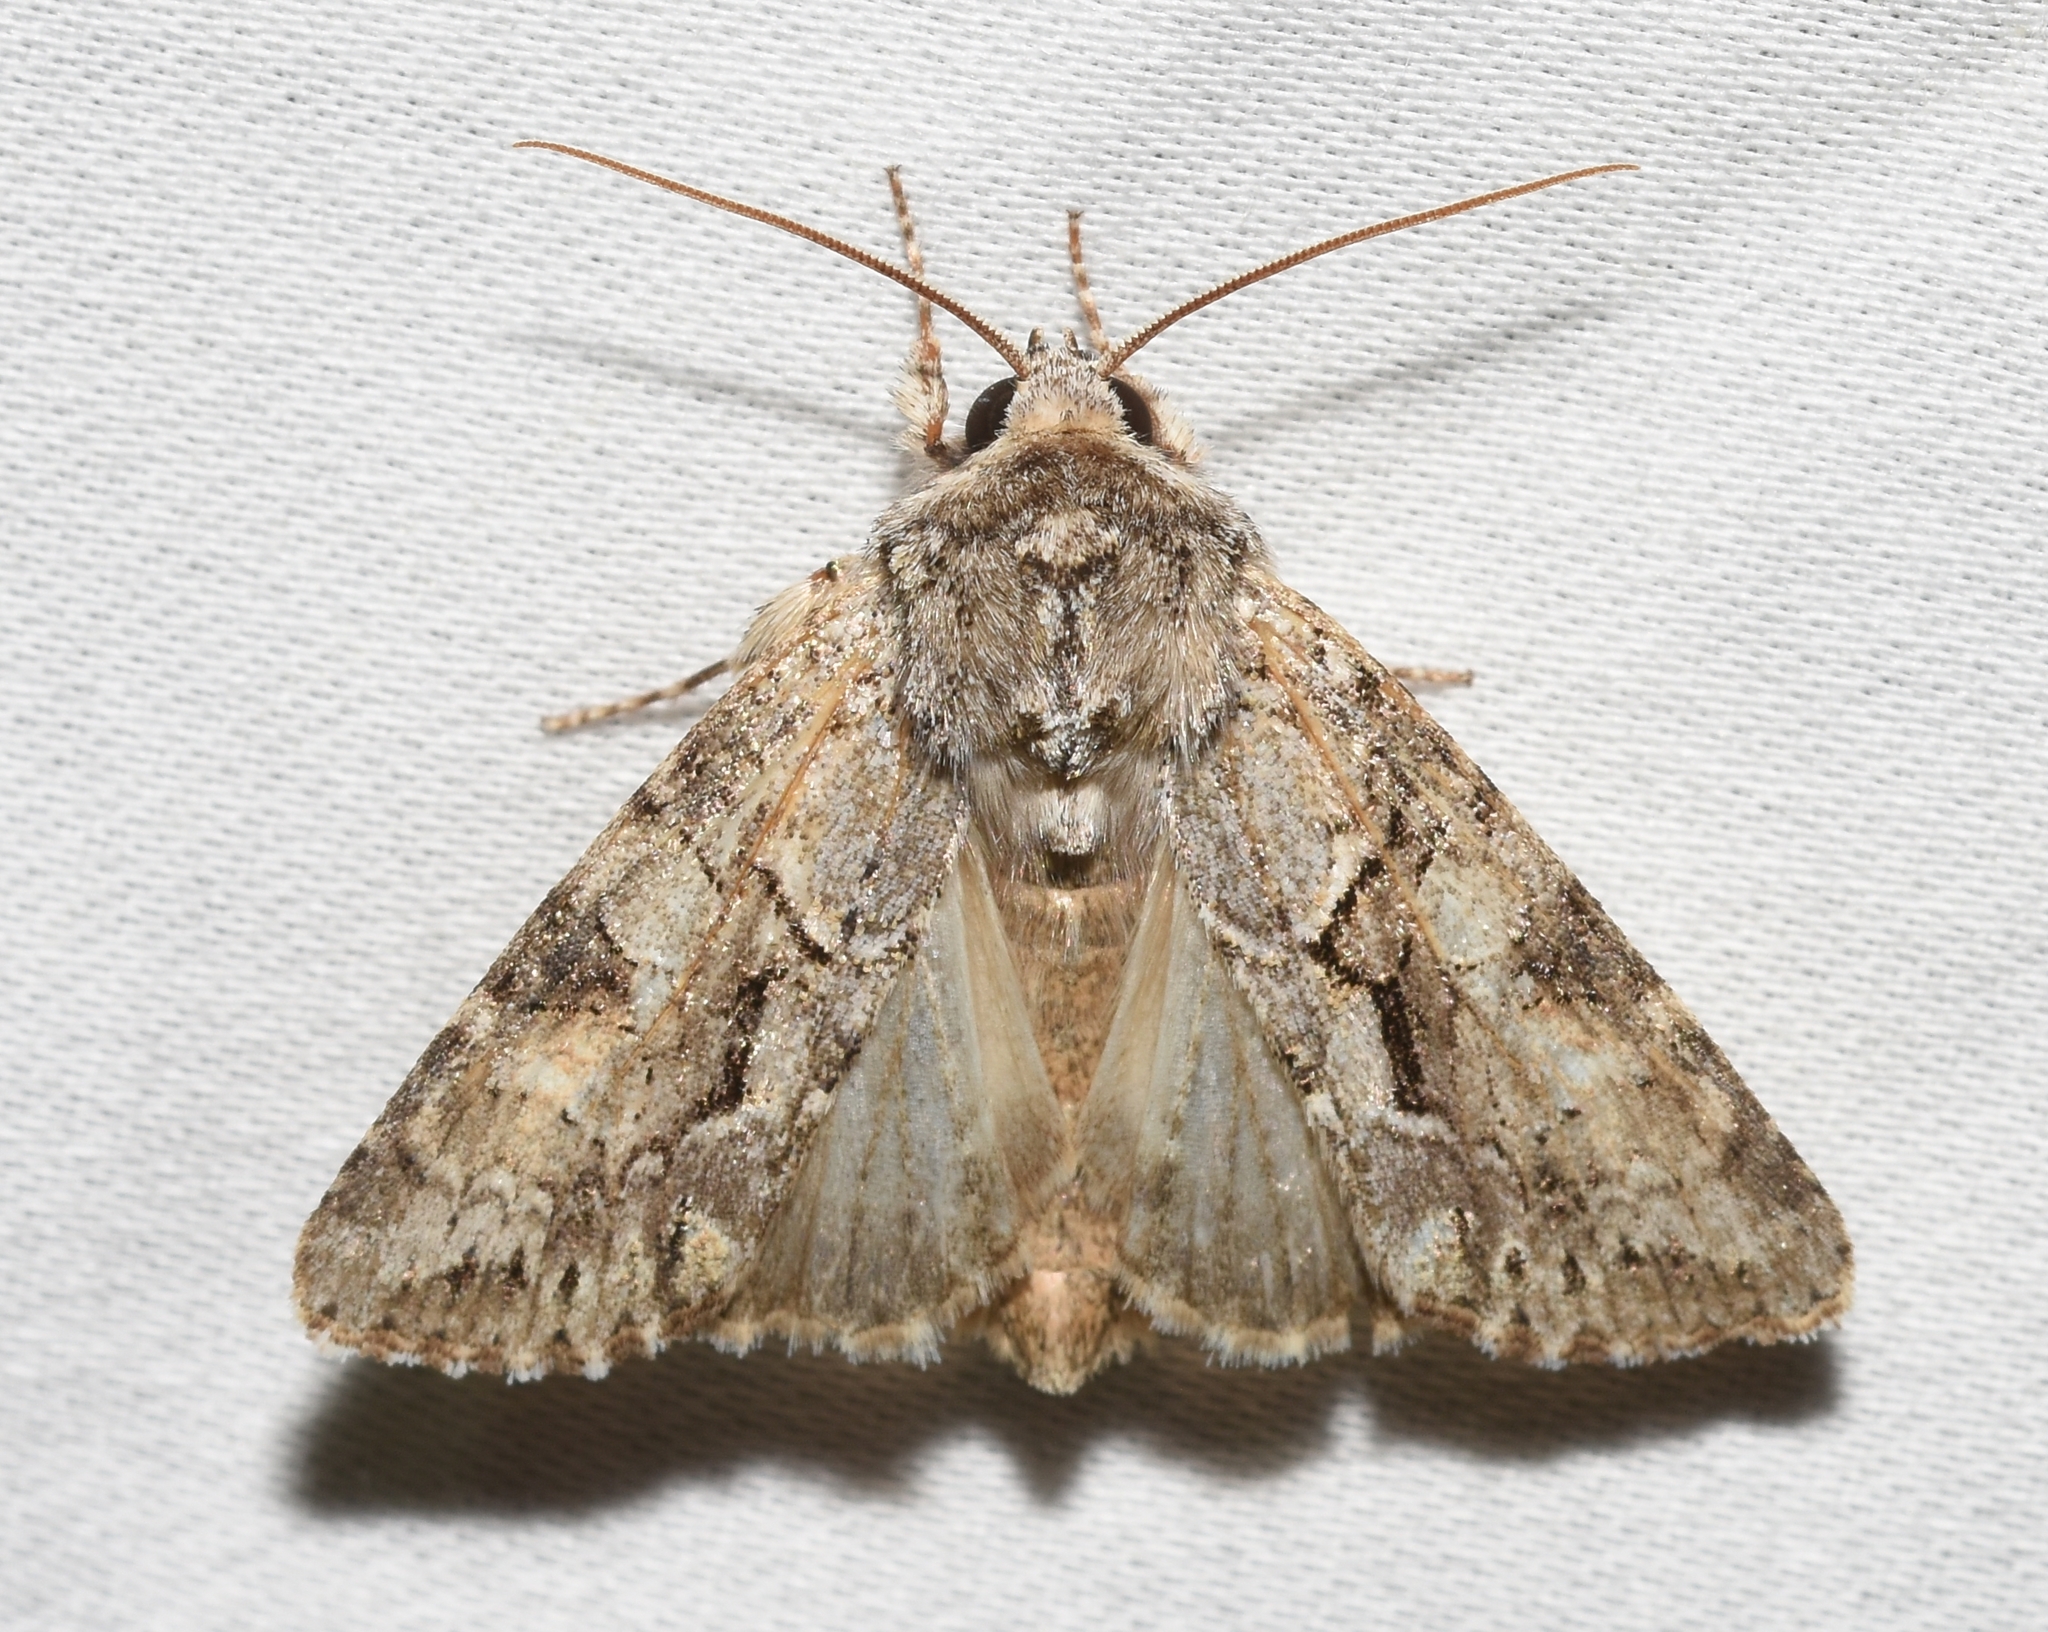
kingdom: Animalia
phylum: Arthropoda
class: Insecta
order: Lepidoptera
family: Noctuidae
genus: Achatia
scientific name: Achatia distincta
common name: Distinct quaker
